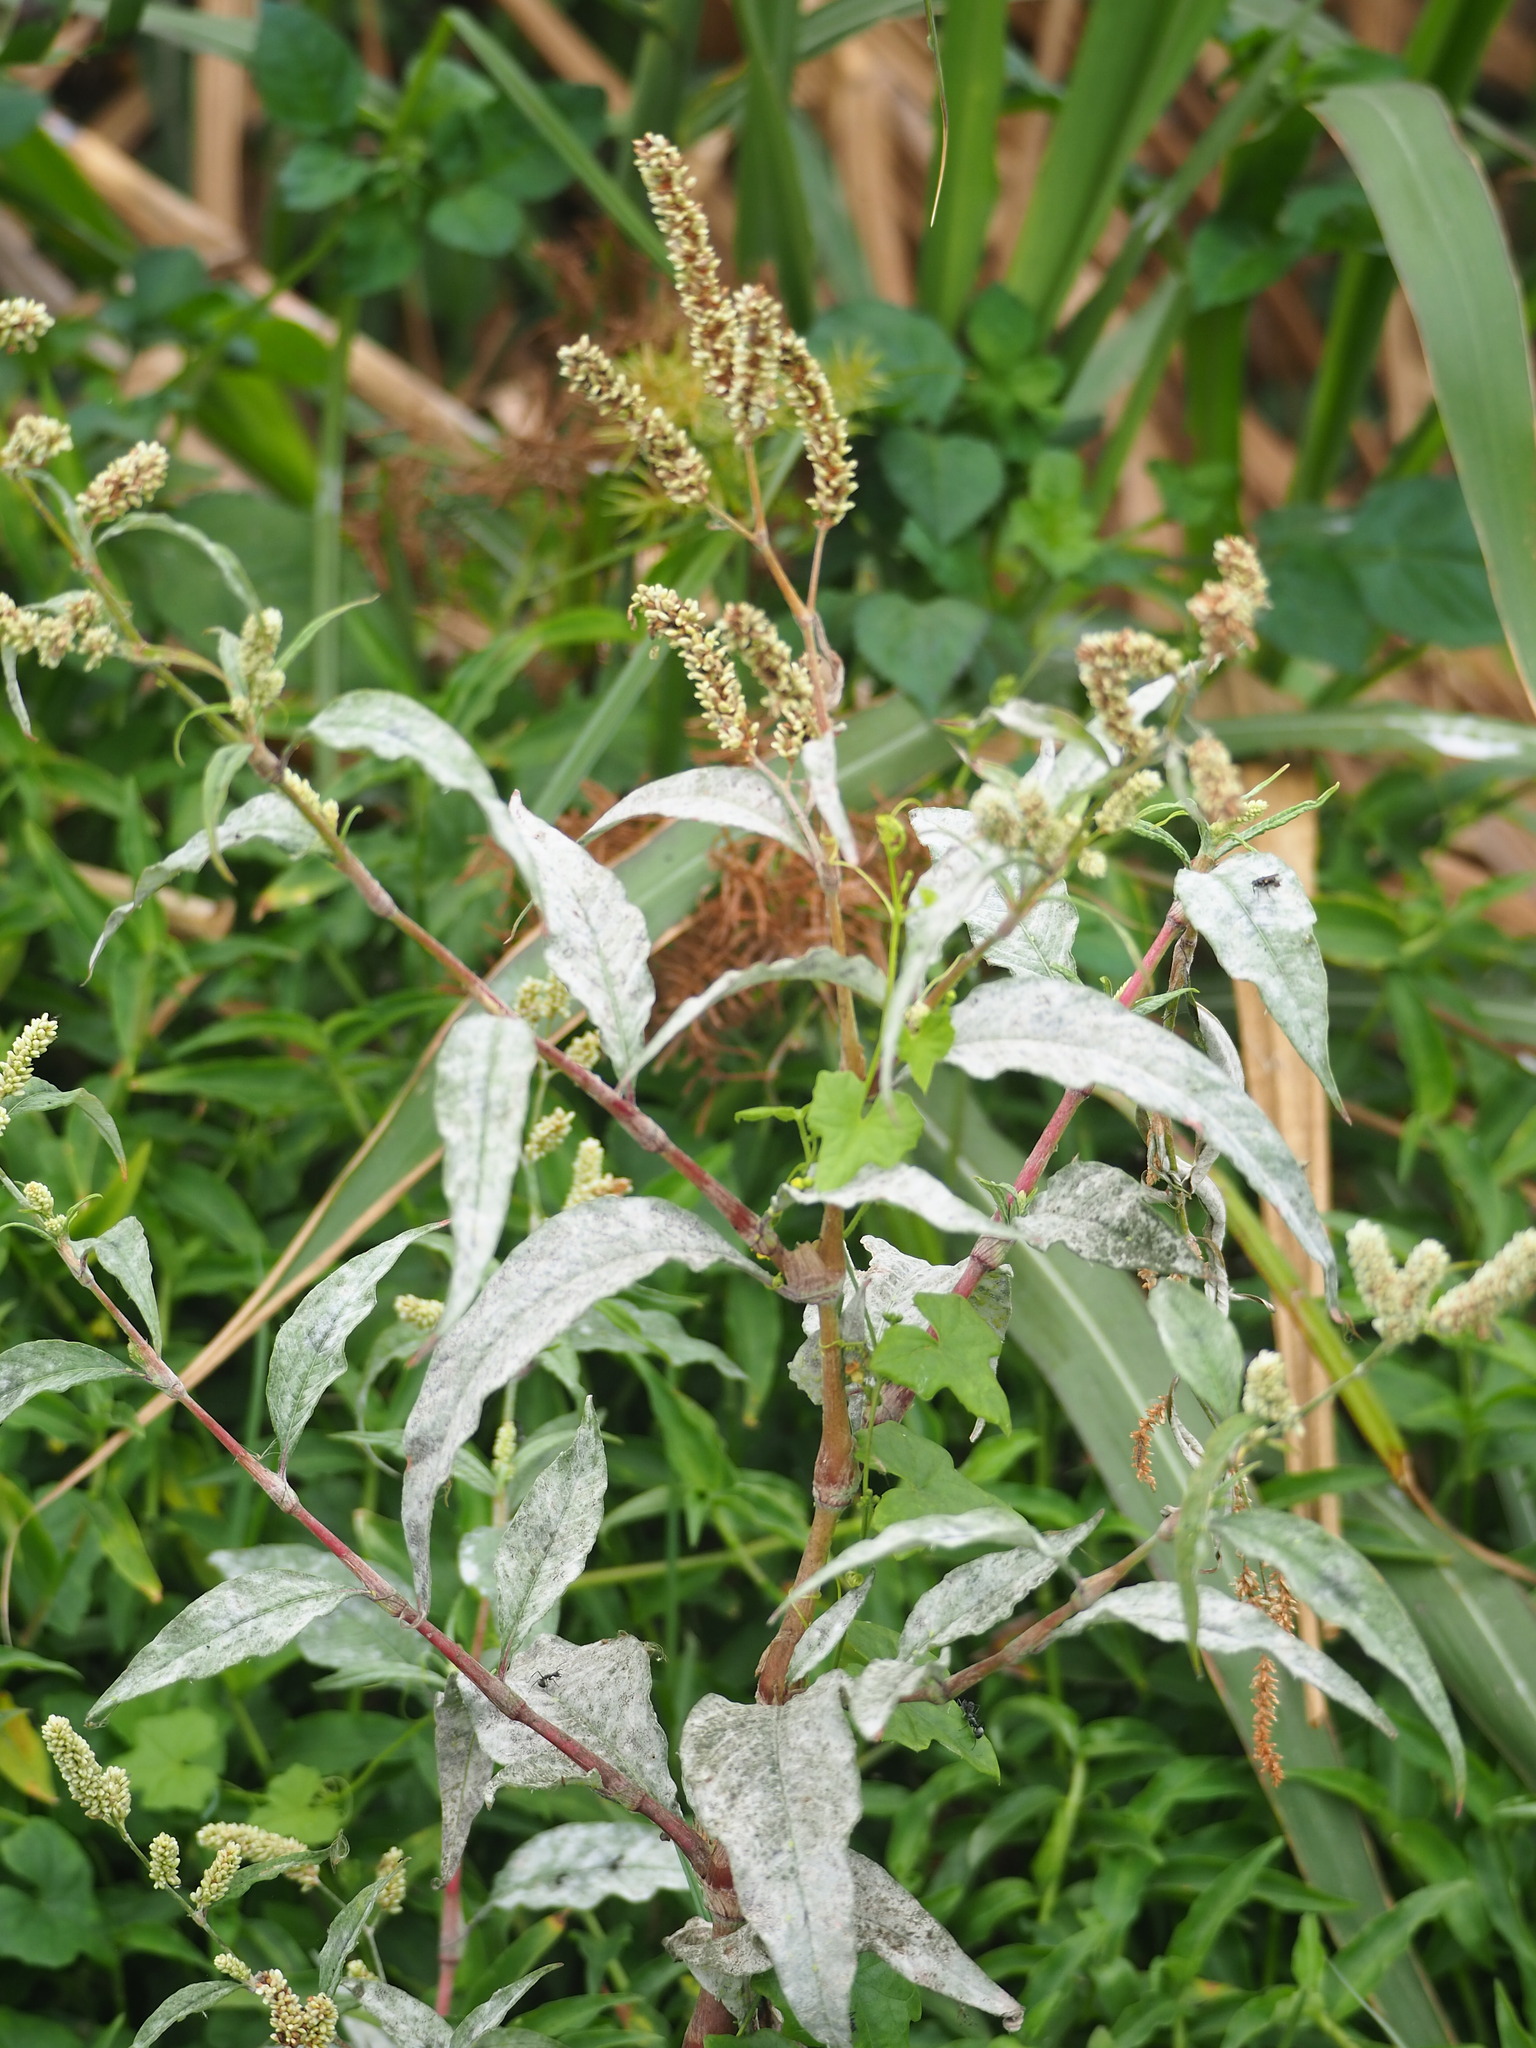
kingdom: Plantae
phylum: Tracheophyta
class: Magnoliopsida
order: Caryophyllales
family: Polygonaceae
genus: Persicaria
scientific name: Persicaria lanata
